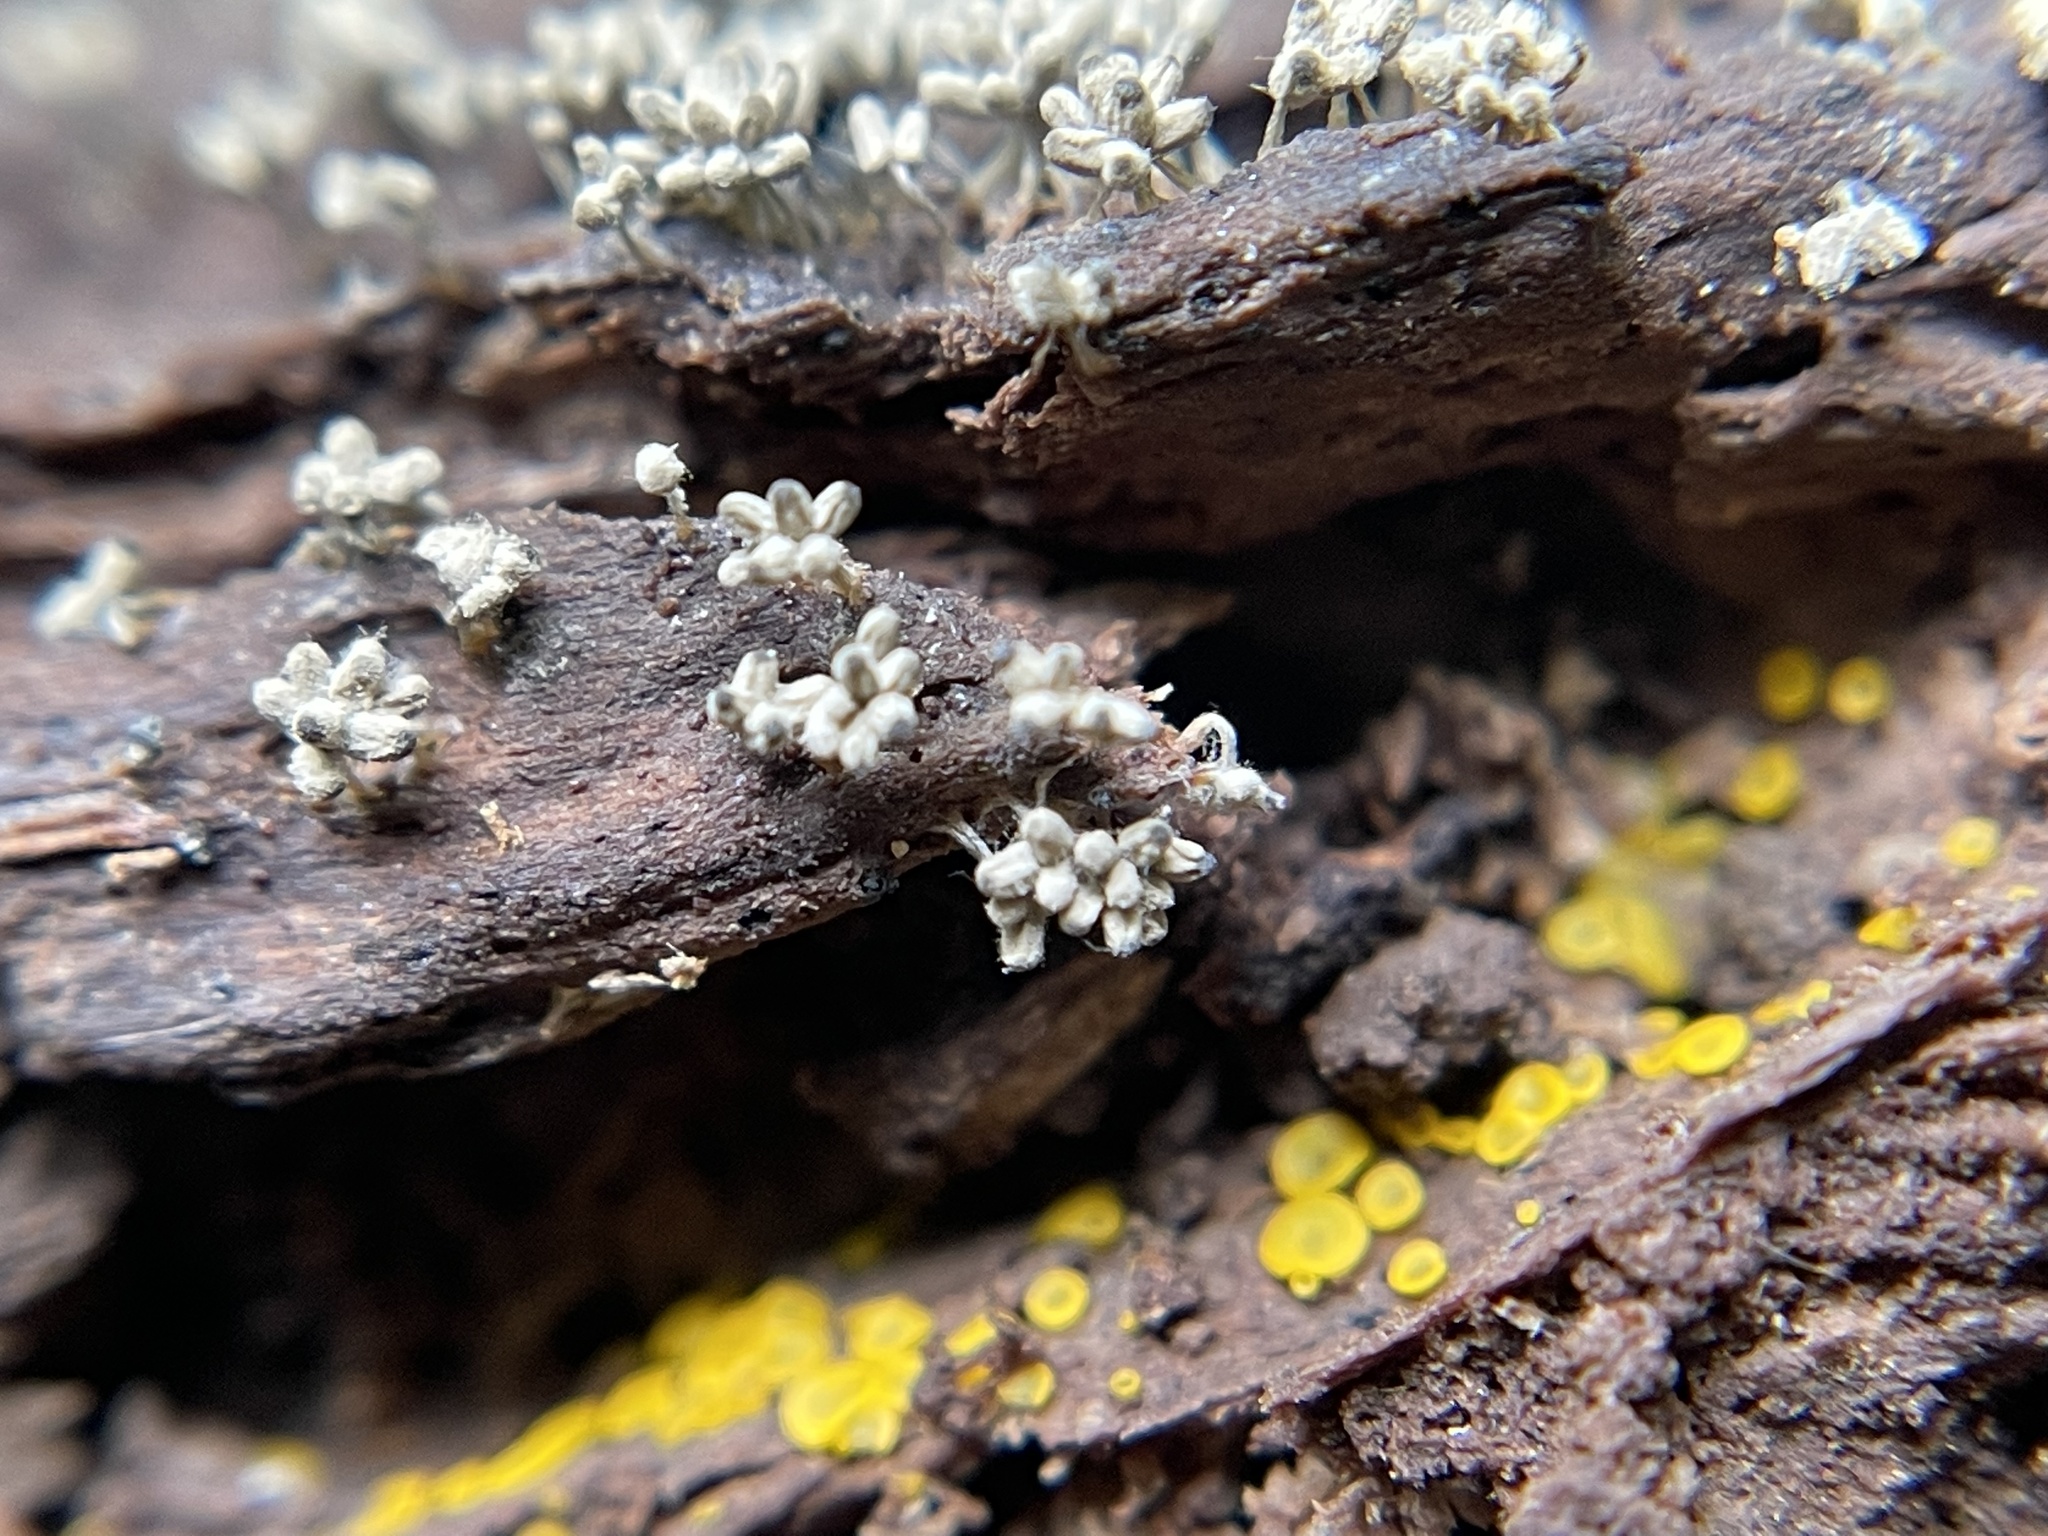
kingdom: Protozoa
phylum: Mycetozoa
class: Myxomycetes
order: Trichiales
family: Arcyriaceae
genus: Arcyria
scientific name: Arcyria cinerea
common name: White carnival candy slime mold
